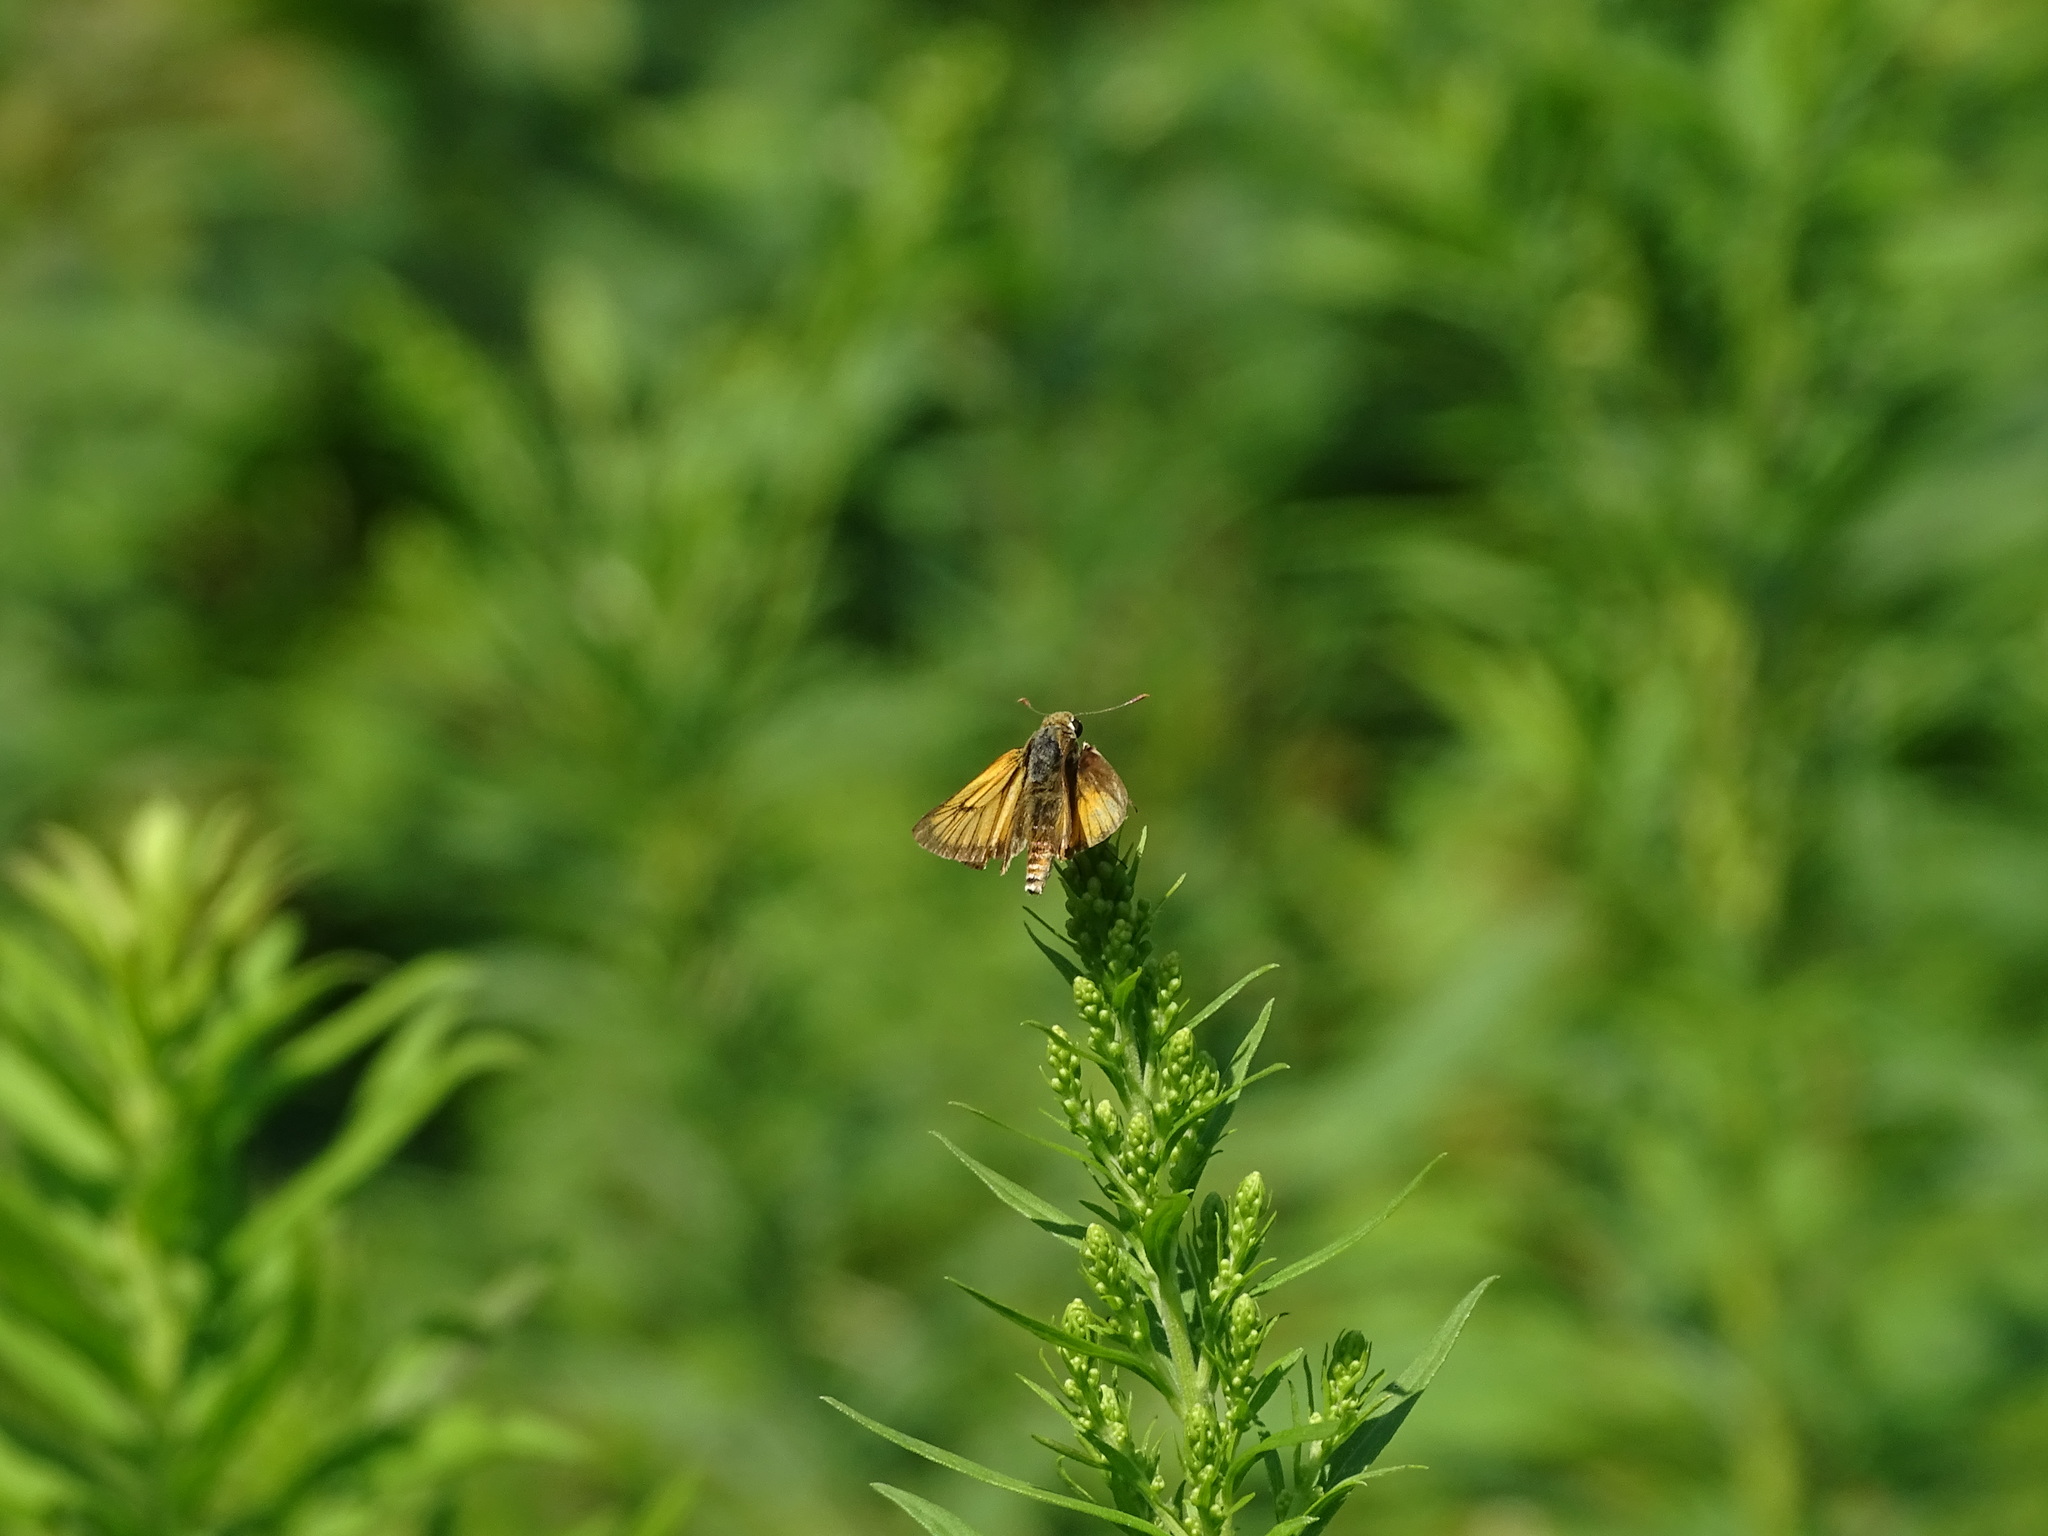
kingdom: Animalia
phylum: Arthropoda
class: Insecta
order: Lepidoptera
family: Hesperiidae
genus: Atrytone
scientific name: Atrytone delaware
